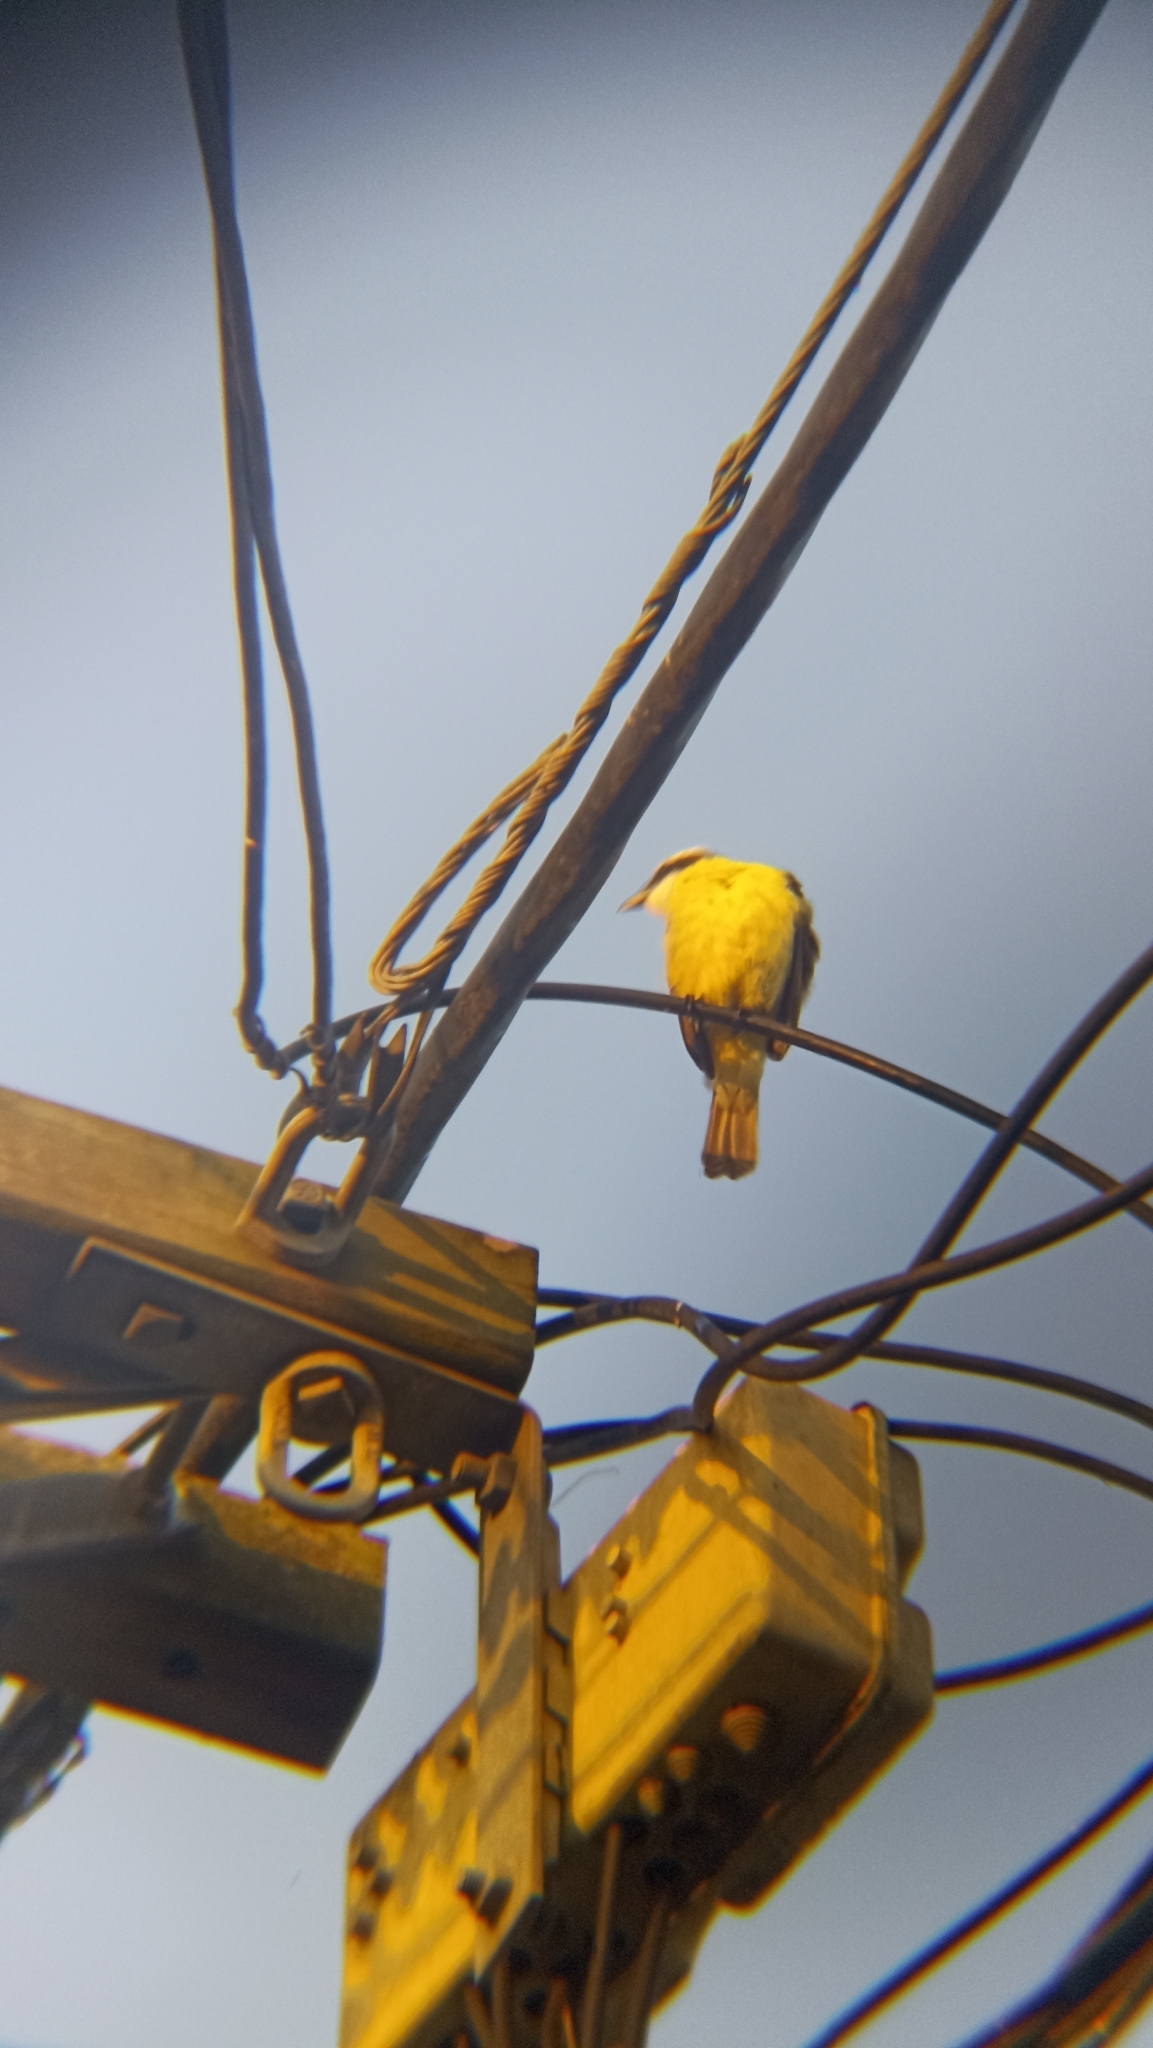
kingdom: Animalia
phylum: Chordata
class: Aves
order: Passeriformes
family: Tyrannidae
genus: Pitangus
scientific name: Pitangus sulphuratus
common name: Great kiskadee
